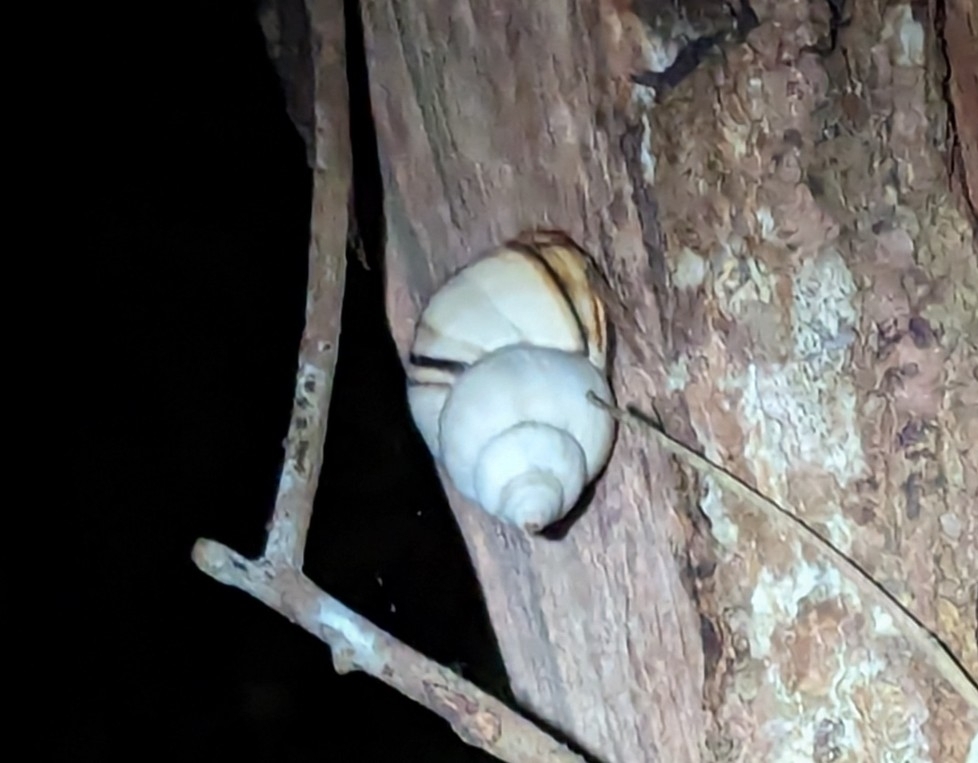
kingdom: Animalia
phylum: Mollusca
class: Gastropoda
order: Stylommatophora
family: Orthalicidae
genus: Orthalicus
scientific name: Orthalicus floridensis
